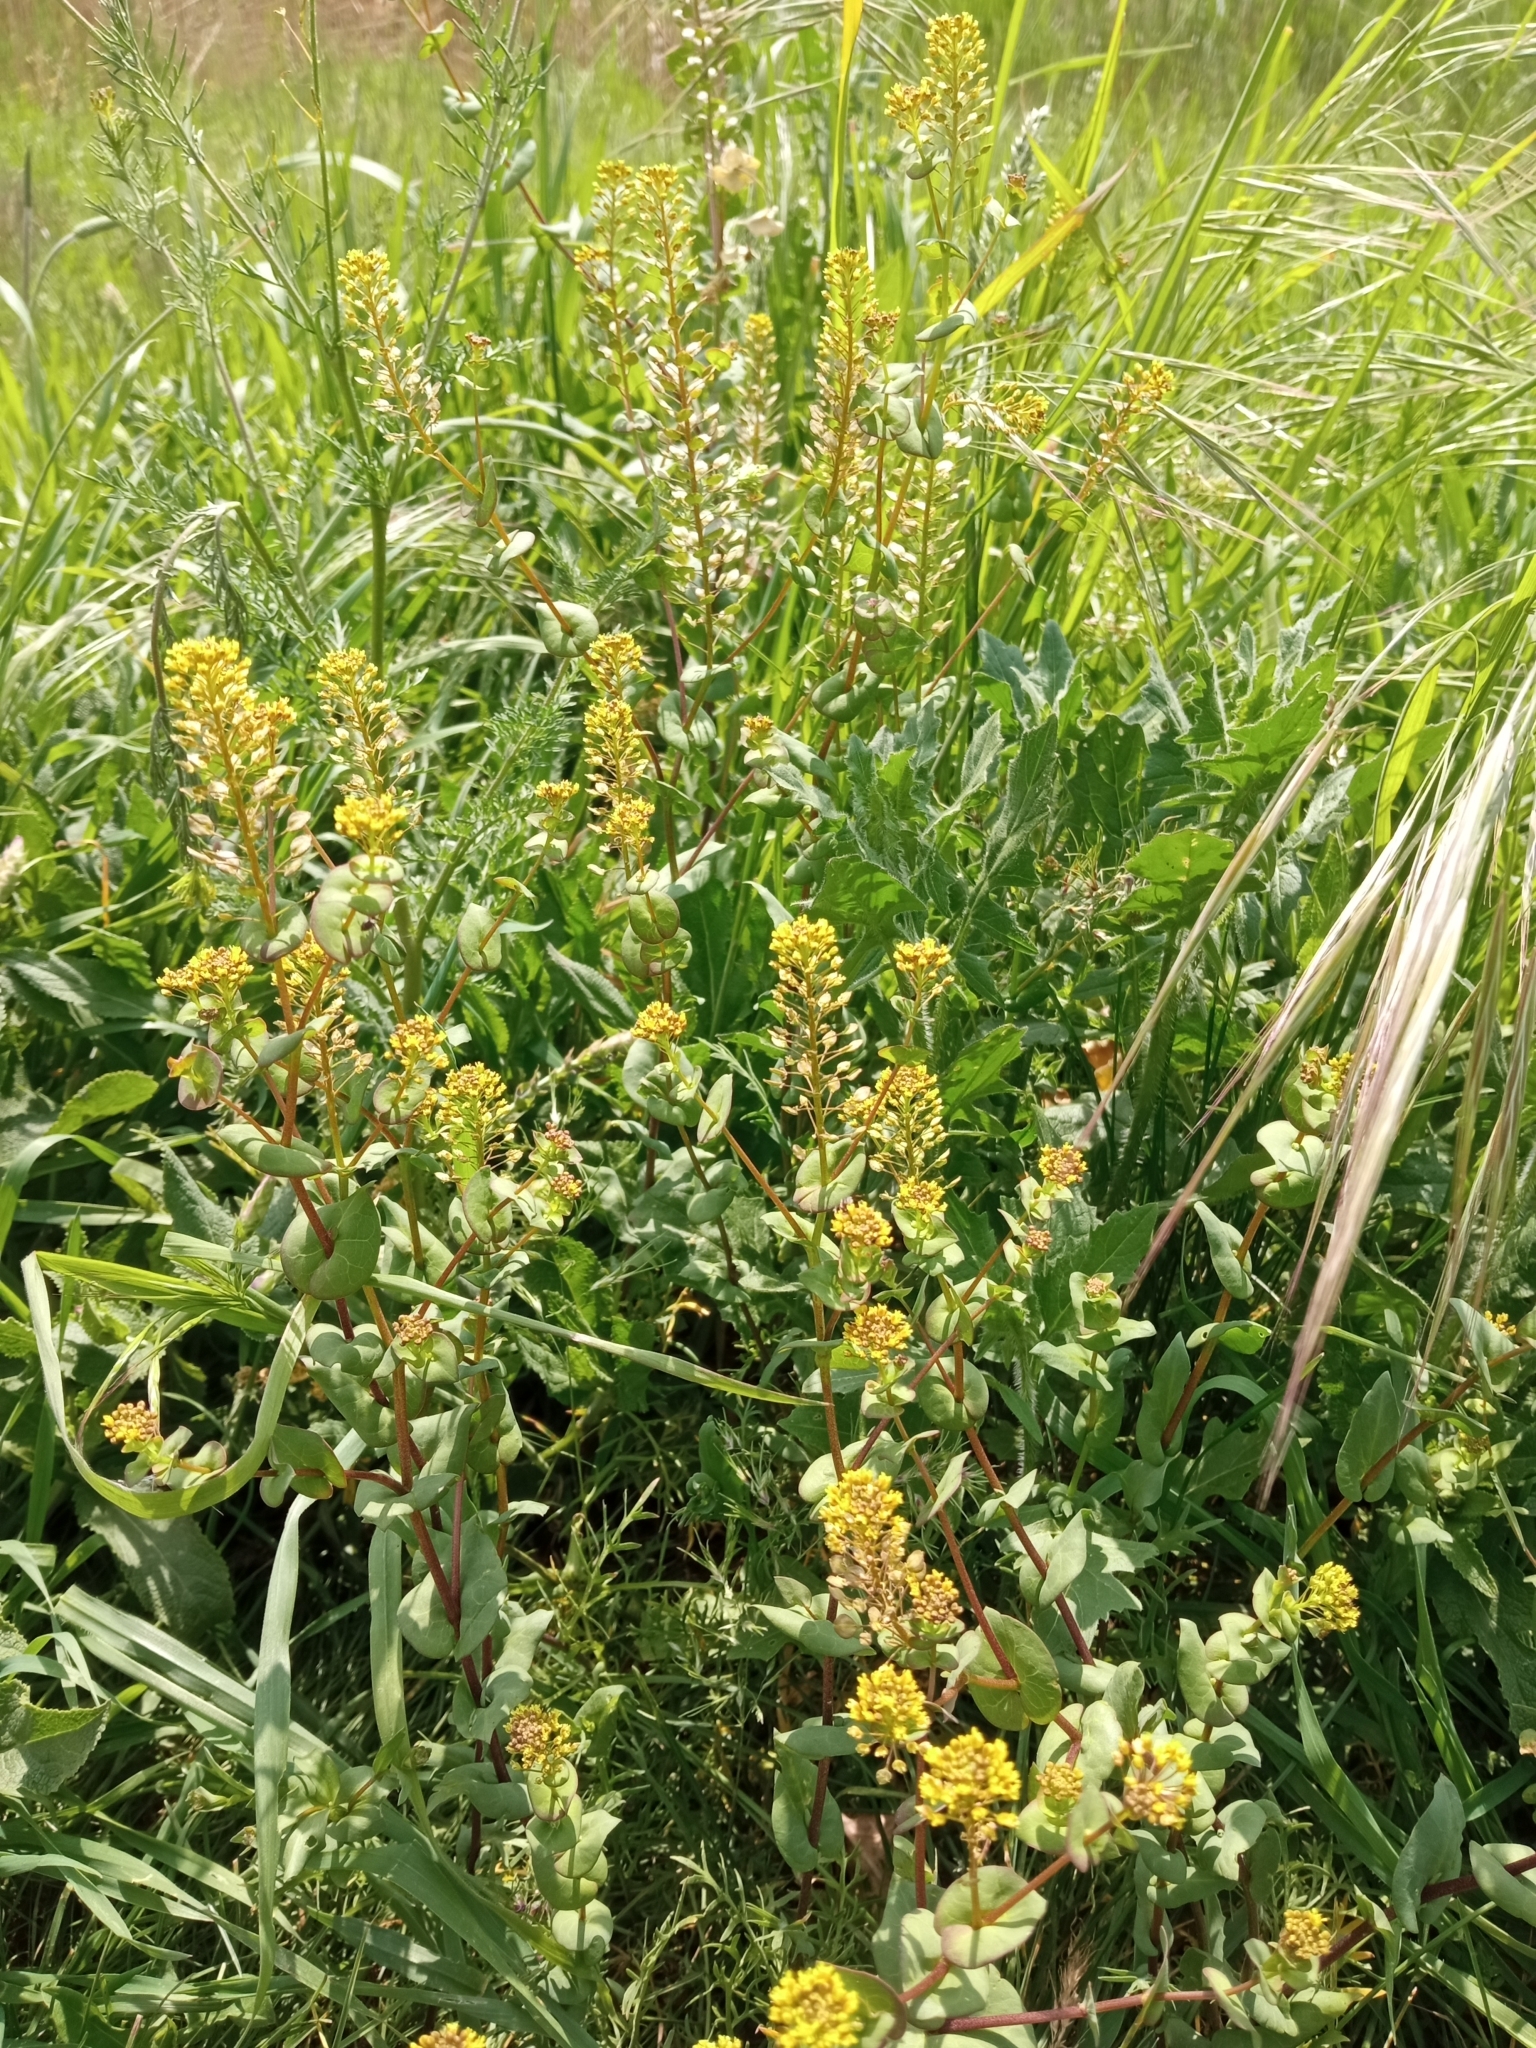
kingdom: Plantae
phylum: Tracheophyta
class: Magnoliopsida
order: Brassicales
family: Brassicaceae
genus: Lepidium
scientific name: Lepidium perfoliatum
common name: Perfoliate pepperwort
